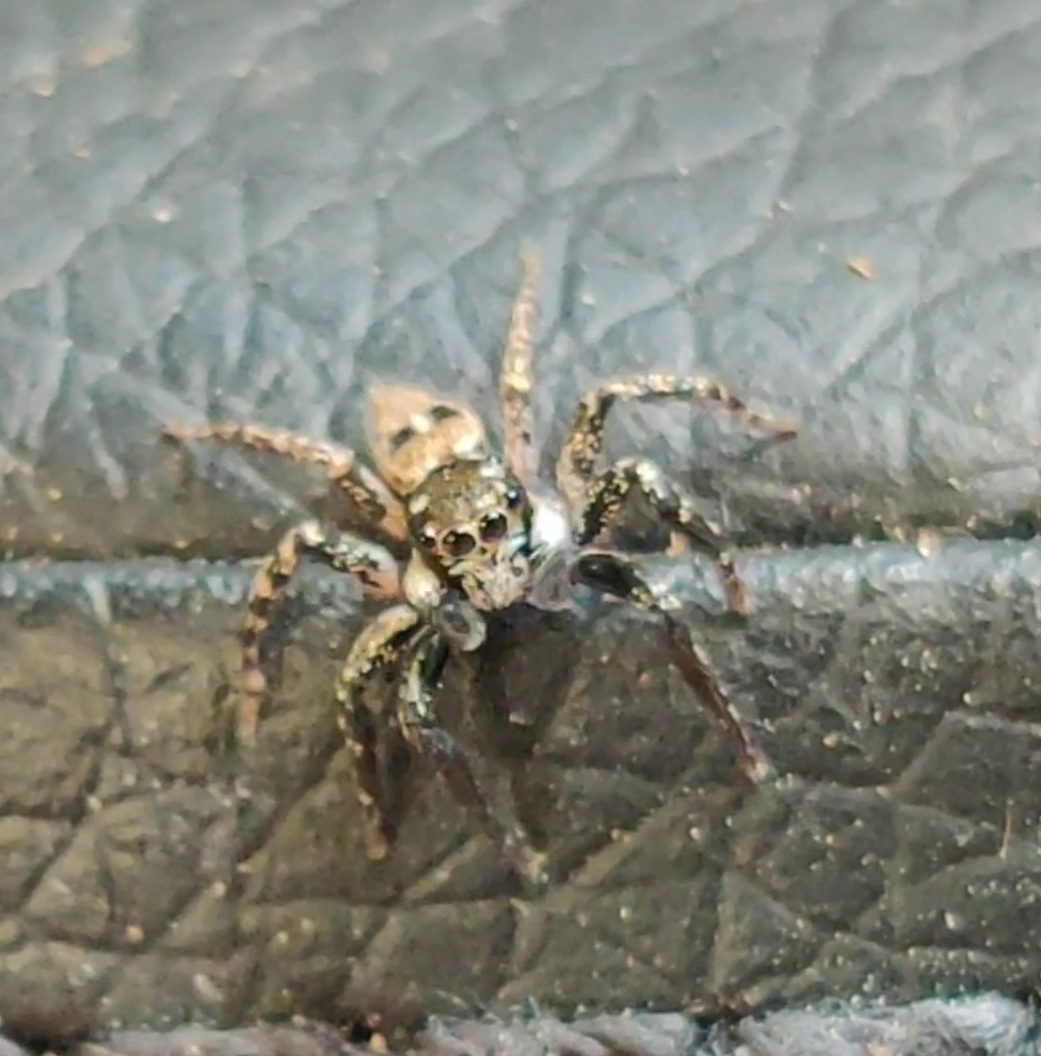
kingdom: Animalia
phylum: Arthropoda
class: Arachnida
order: Araneae
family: Salticidae
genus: Anasaitis
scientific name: Anasaitis canosa
